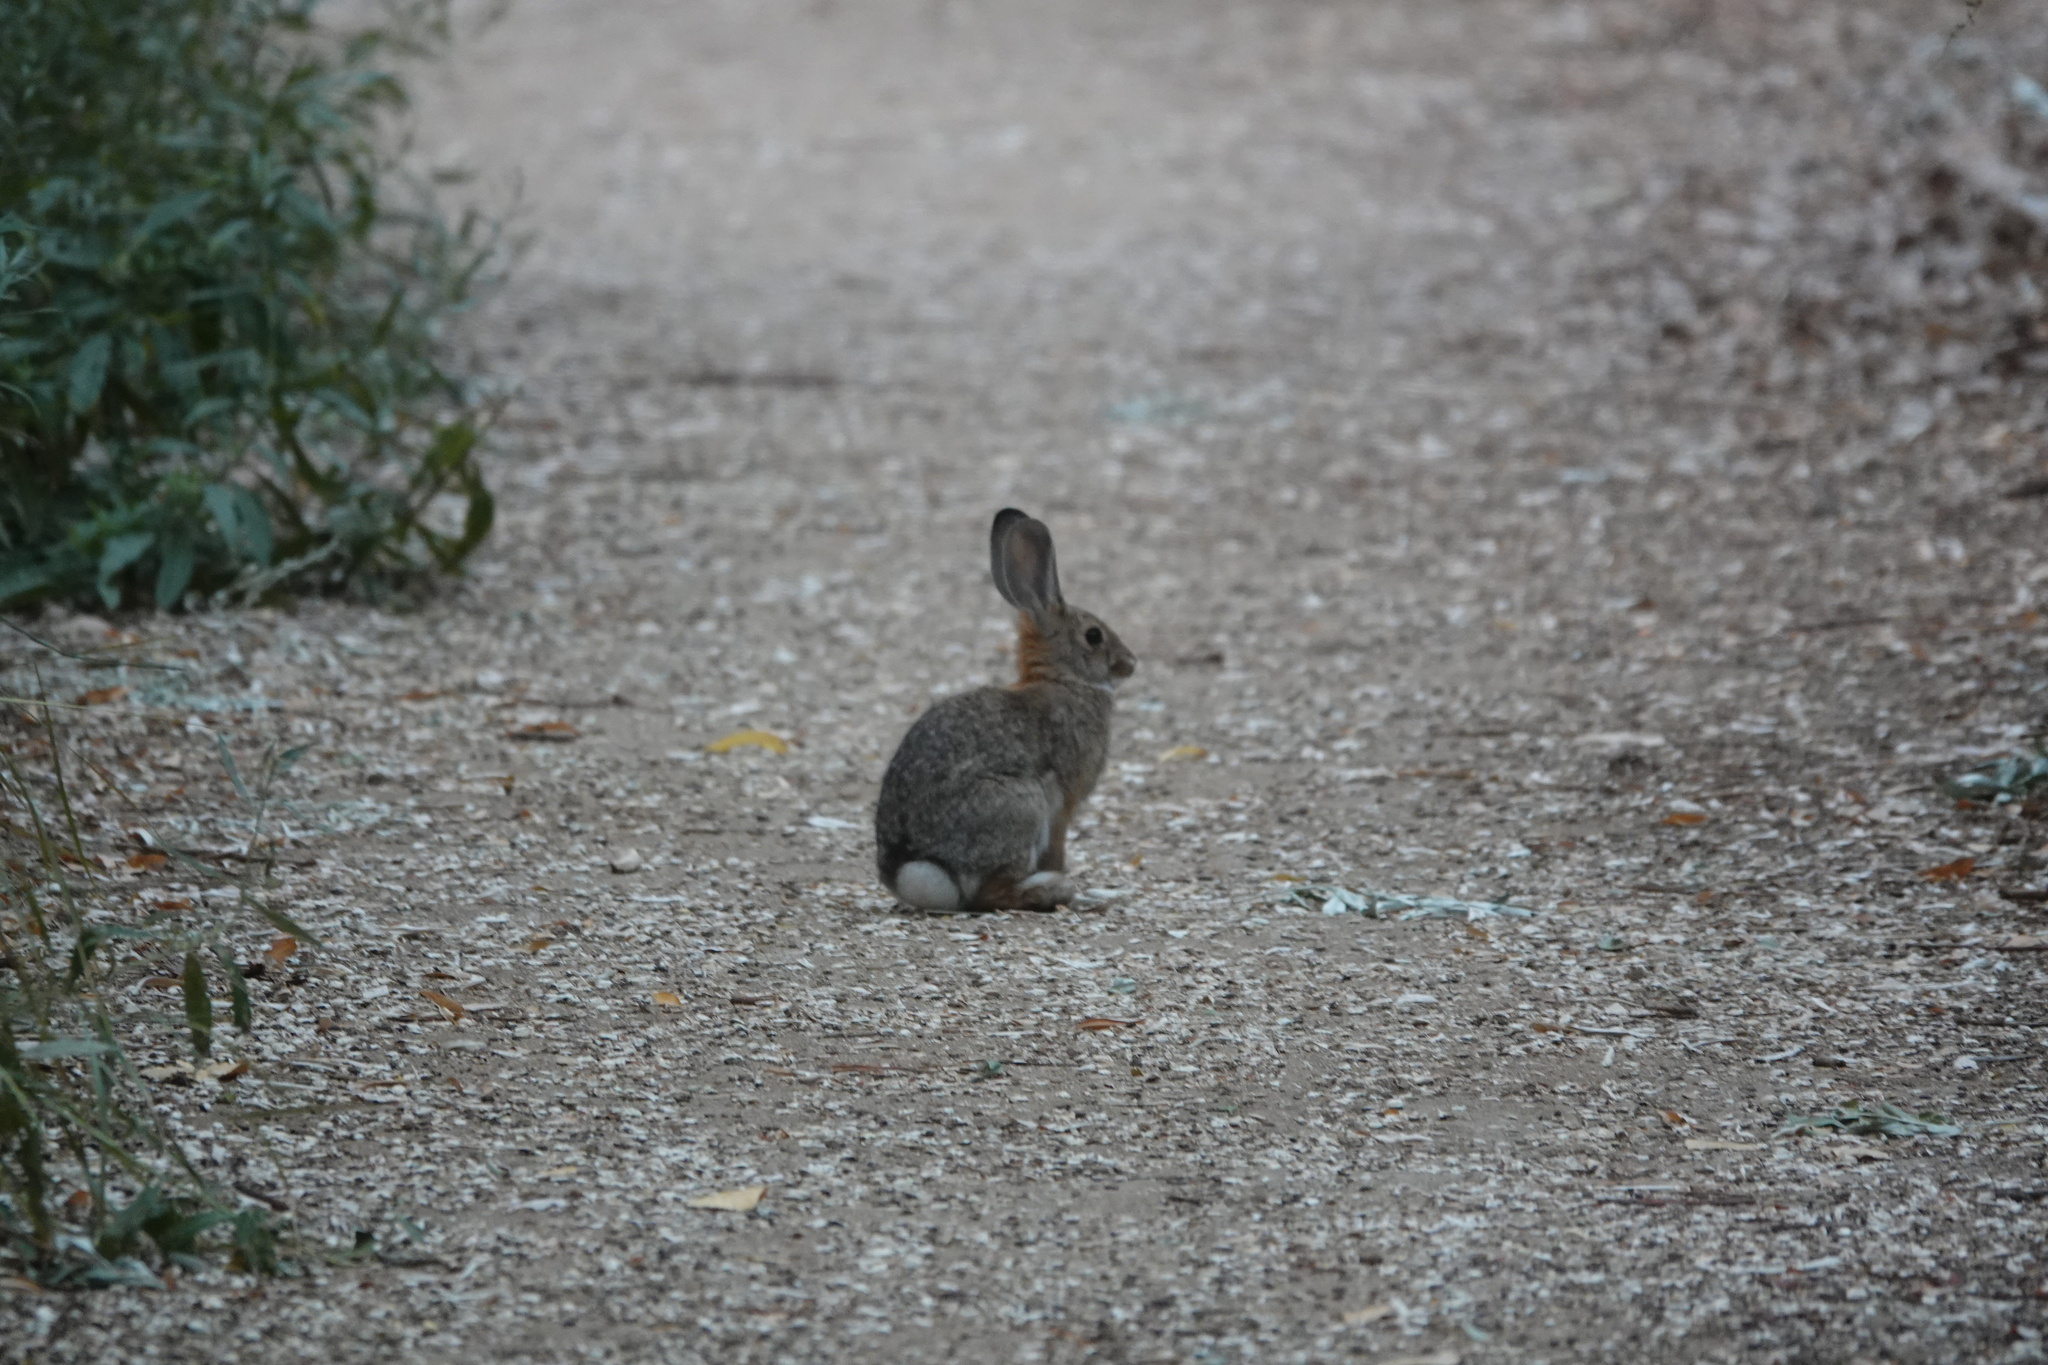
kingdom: Animalia
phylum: Chordata
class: Mammalia
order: Lagomorpha
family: Leporidae
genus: Sylvilagus
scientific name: Sylvilagus audubonii
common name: Desert cottontail
